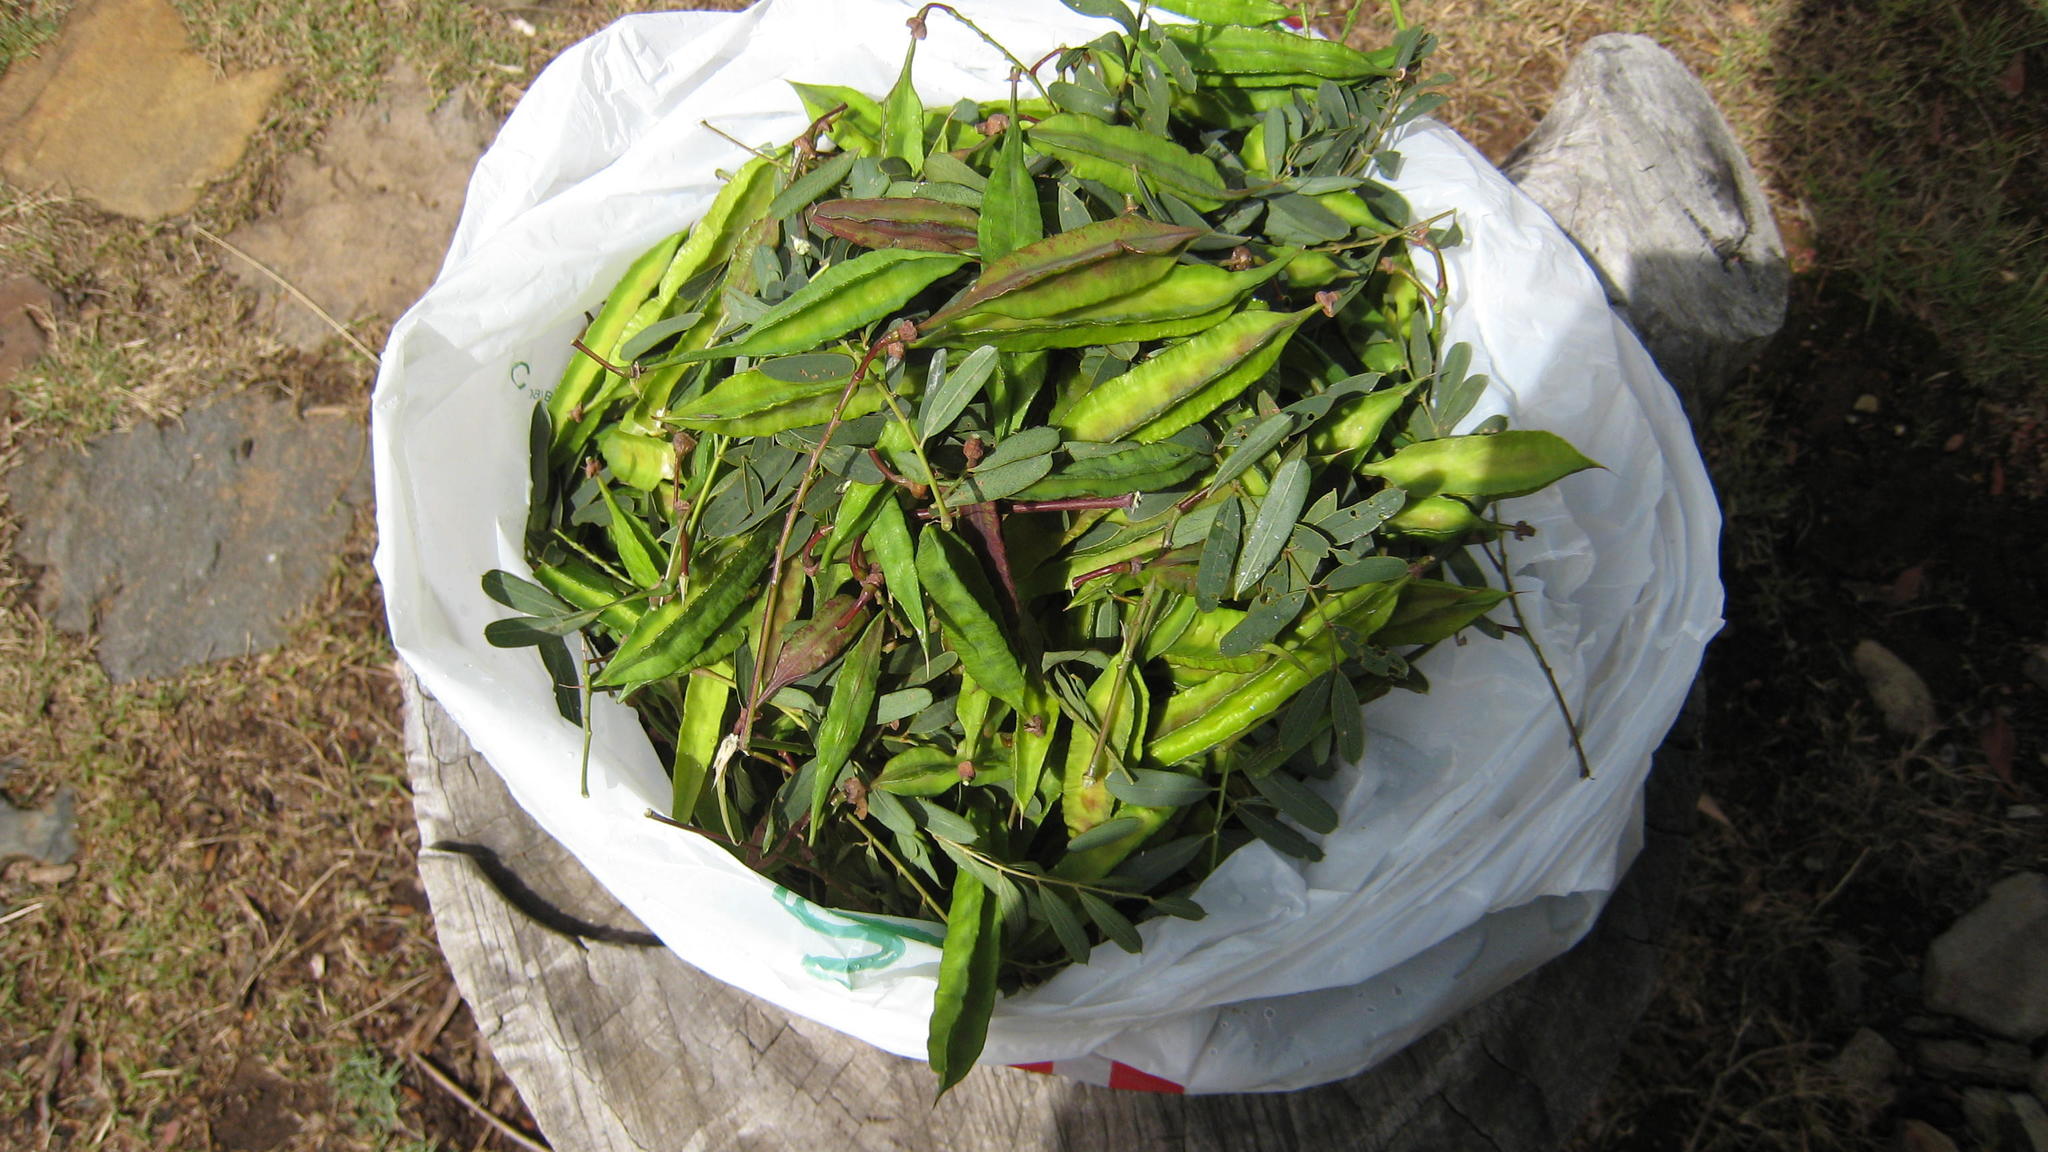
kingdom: Plantae
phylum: Tracheophyta
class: Magnoliopsida
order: Fabales
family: Fabaceae
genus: Sesbania
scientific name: Sesbania punicea
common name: Rattlebox
